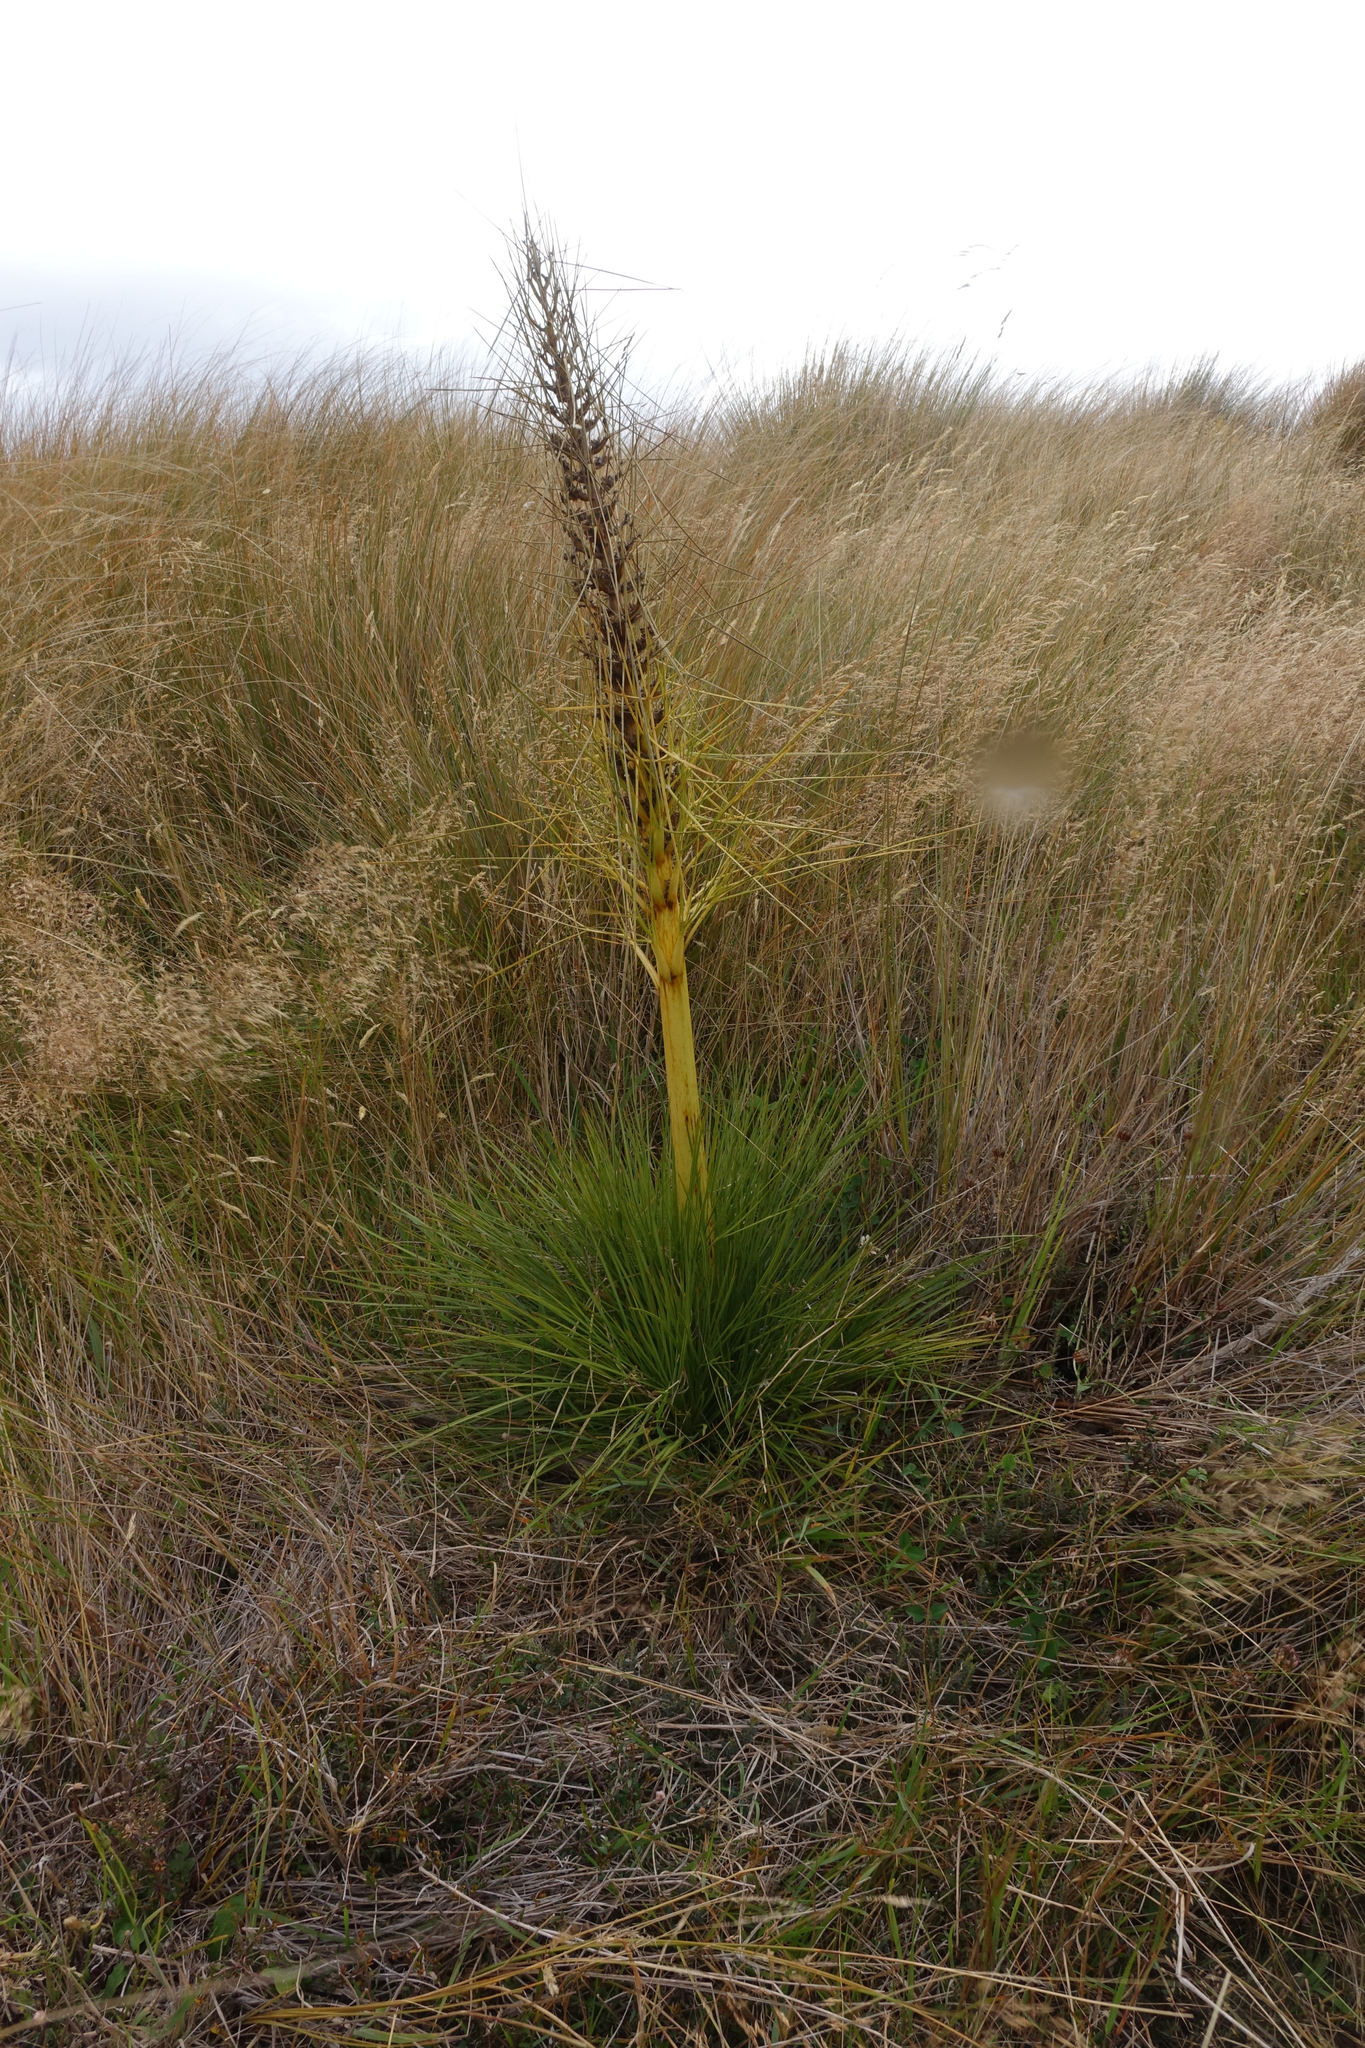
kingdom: Plantae
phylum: Tracheophyta
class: Magnoliopsida
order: Apiales
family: Apiaceae
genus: Aciphylla
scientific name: Aciphylla subflabellata
